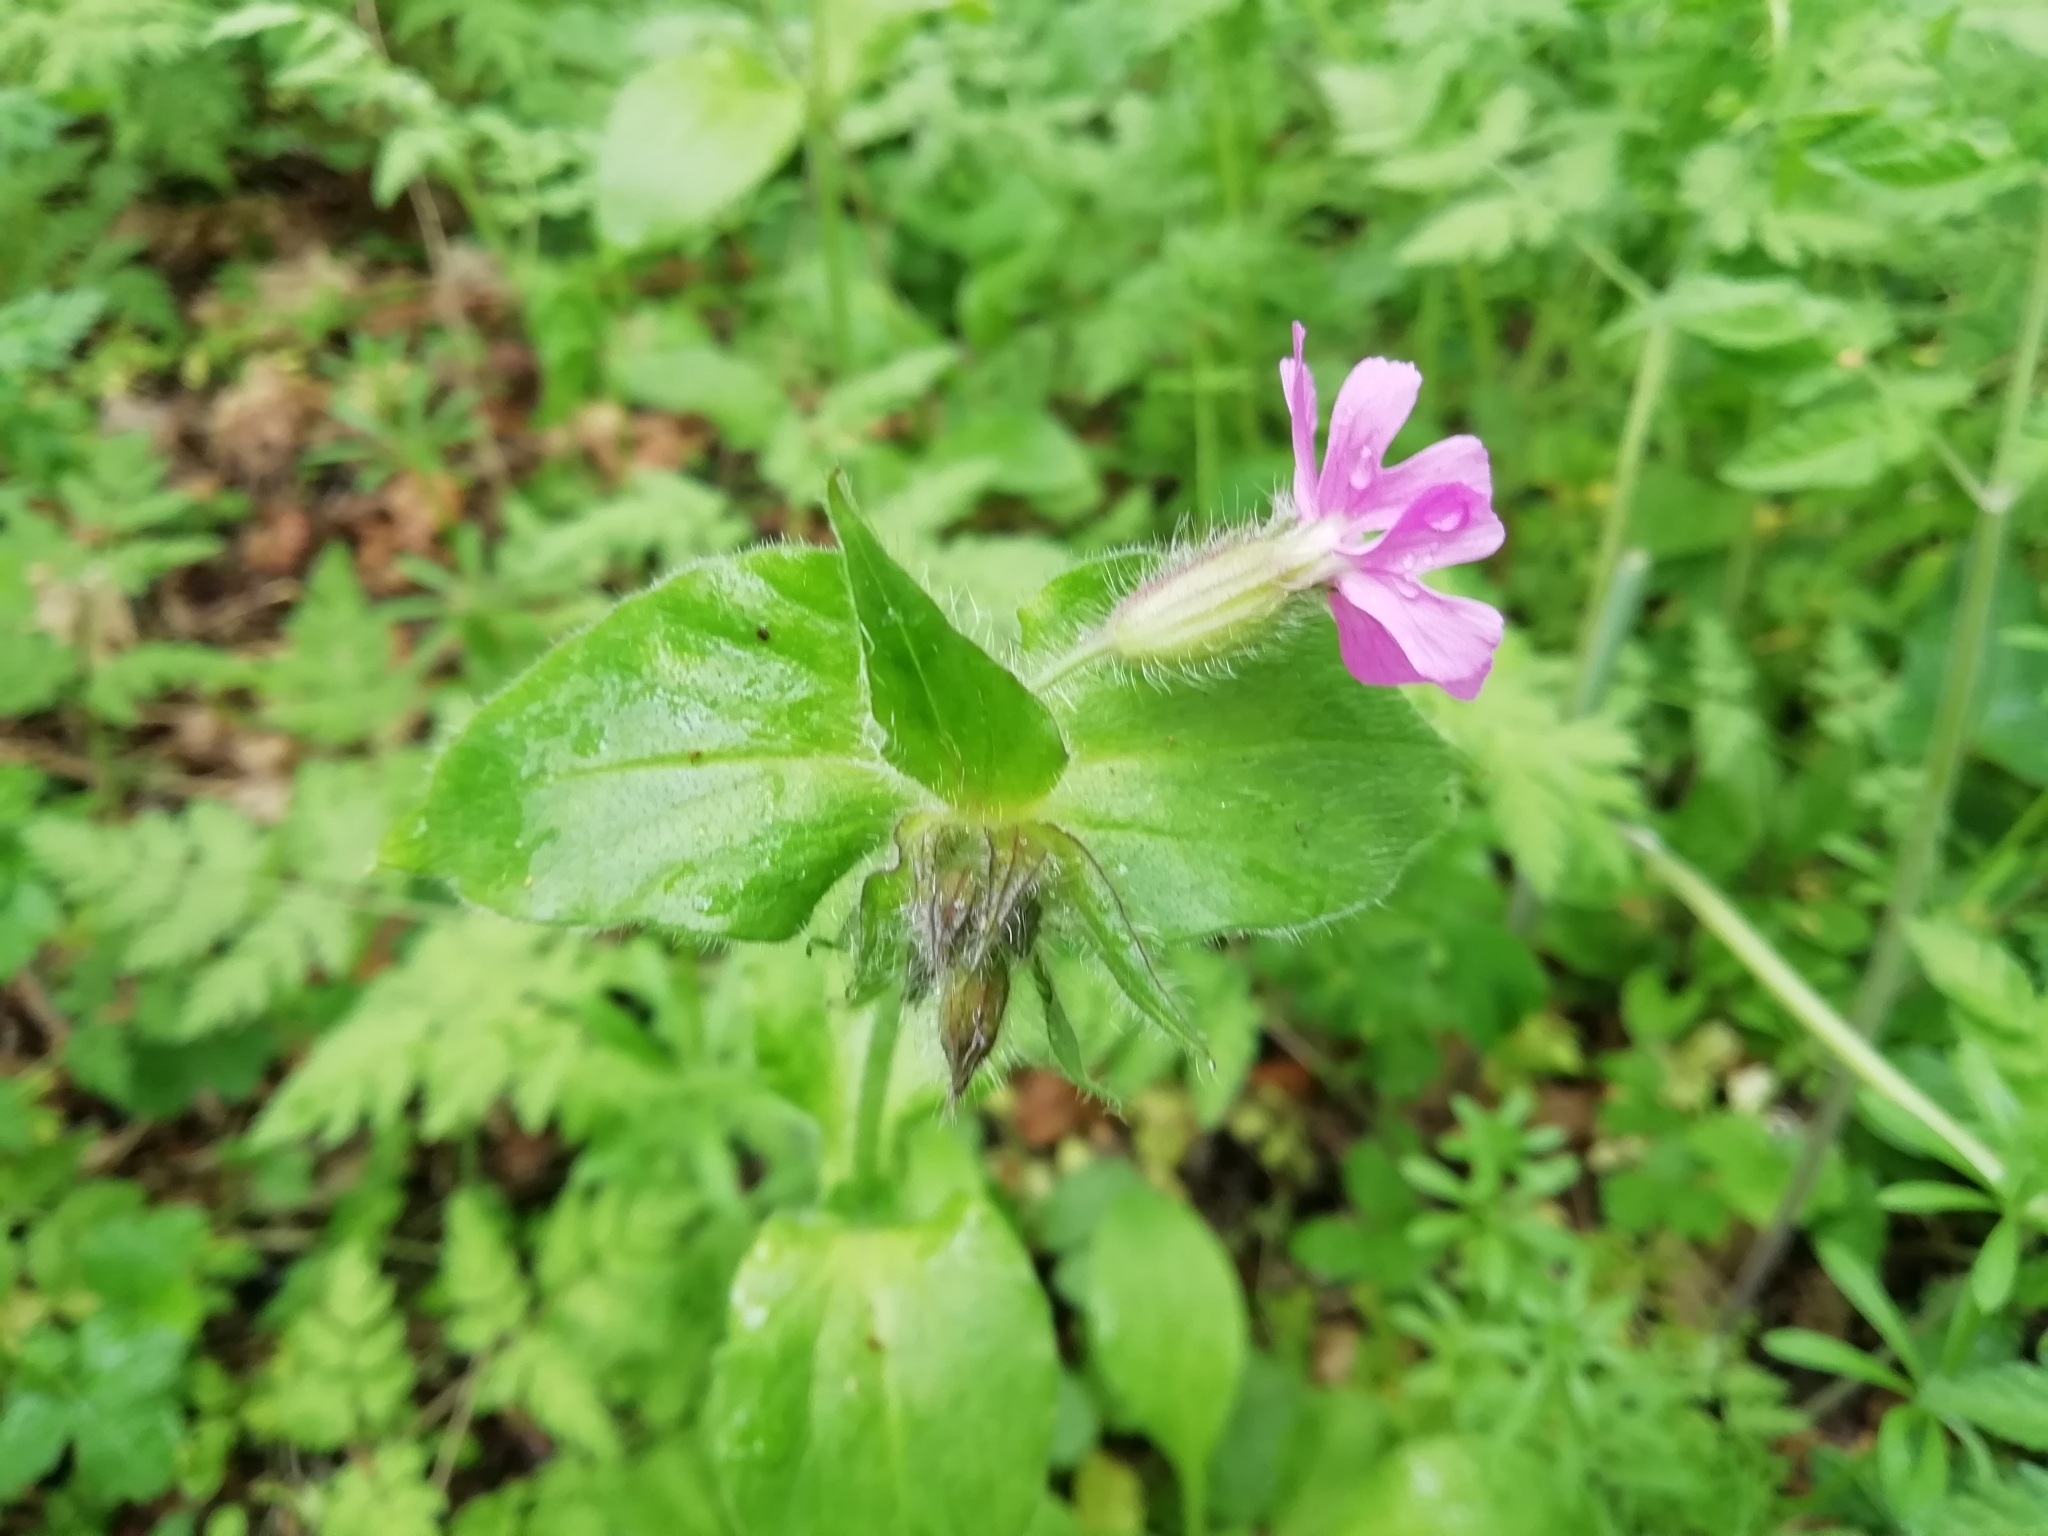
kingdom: Plantae
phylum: Tracheophyta
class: Magnoliopsida
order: Caryophyllales
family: Caryophyllaceae
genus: Silene
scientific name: Silene dioica
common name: Red campion
